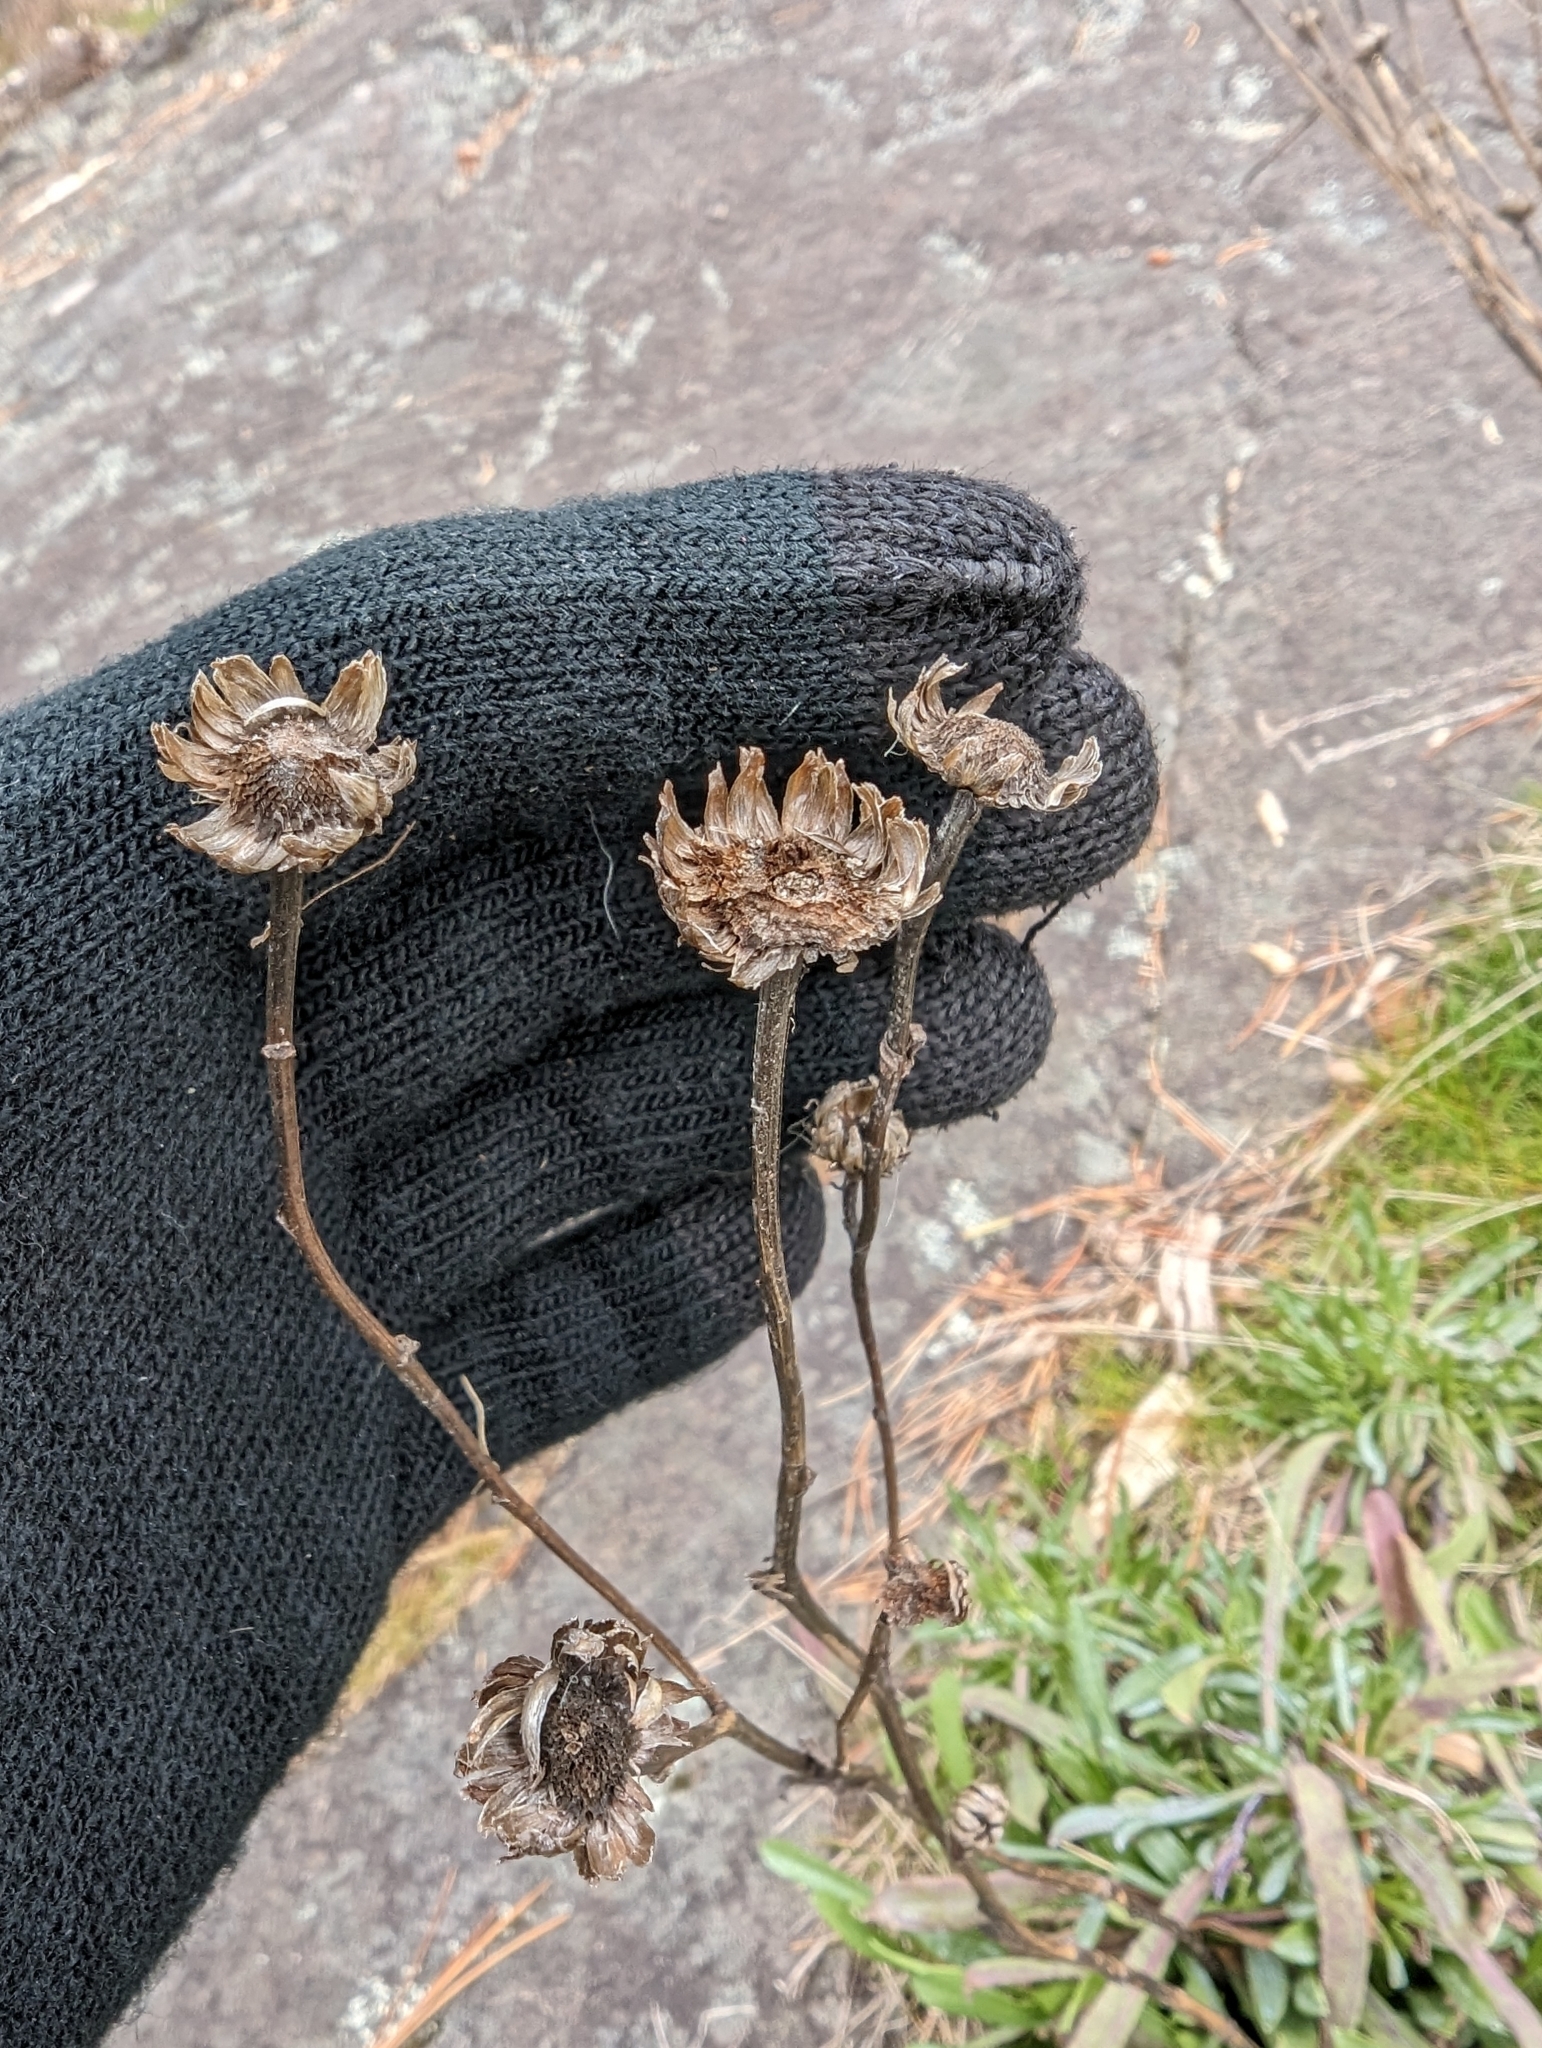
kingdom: Plantae
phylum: Tracheophyta
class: Magnoliopsida
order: Asterales
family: Asteraceae
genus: Grindelia
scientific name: Grindelia hirsutula
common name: Hairy gumweed
